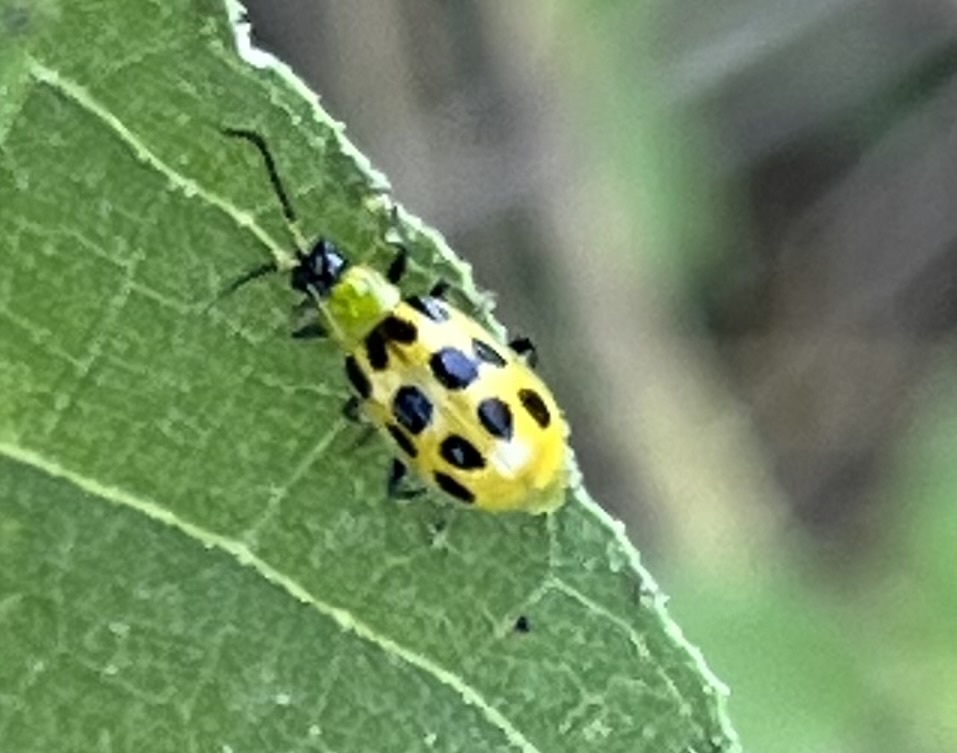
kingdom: Animalia
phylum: Arthropoda
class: Insecta
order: Coleoptera
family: Chrysomelidae
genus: Diabrotica
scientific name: Diabrotica undecimpunctata
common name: Spotted cucumber beetle
